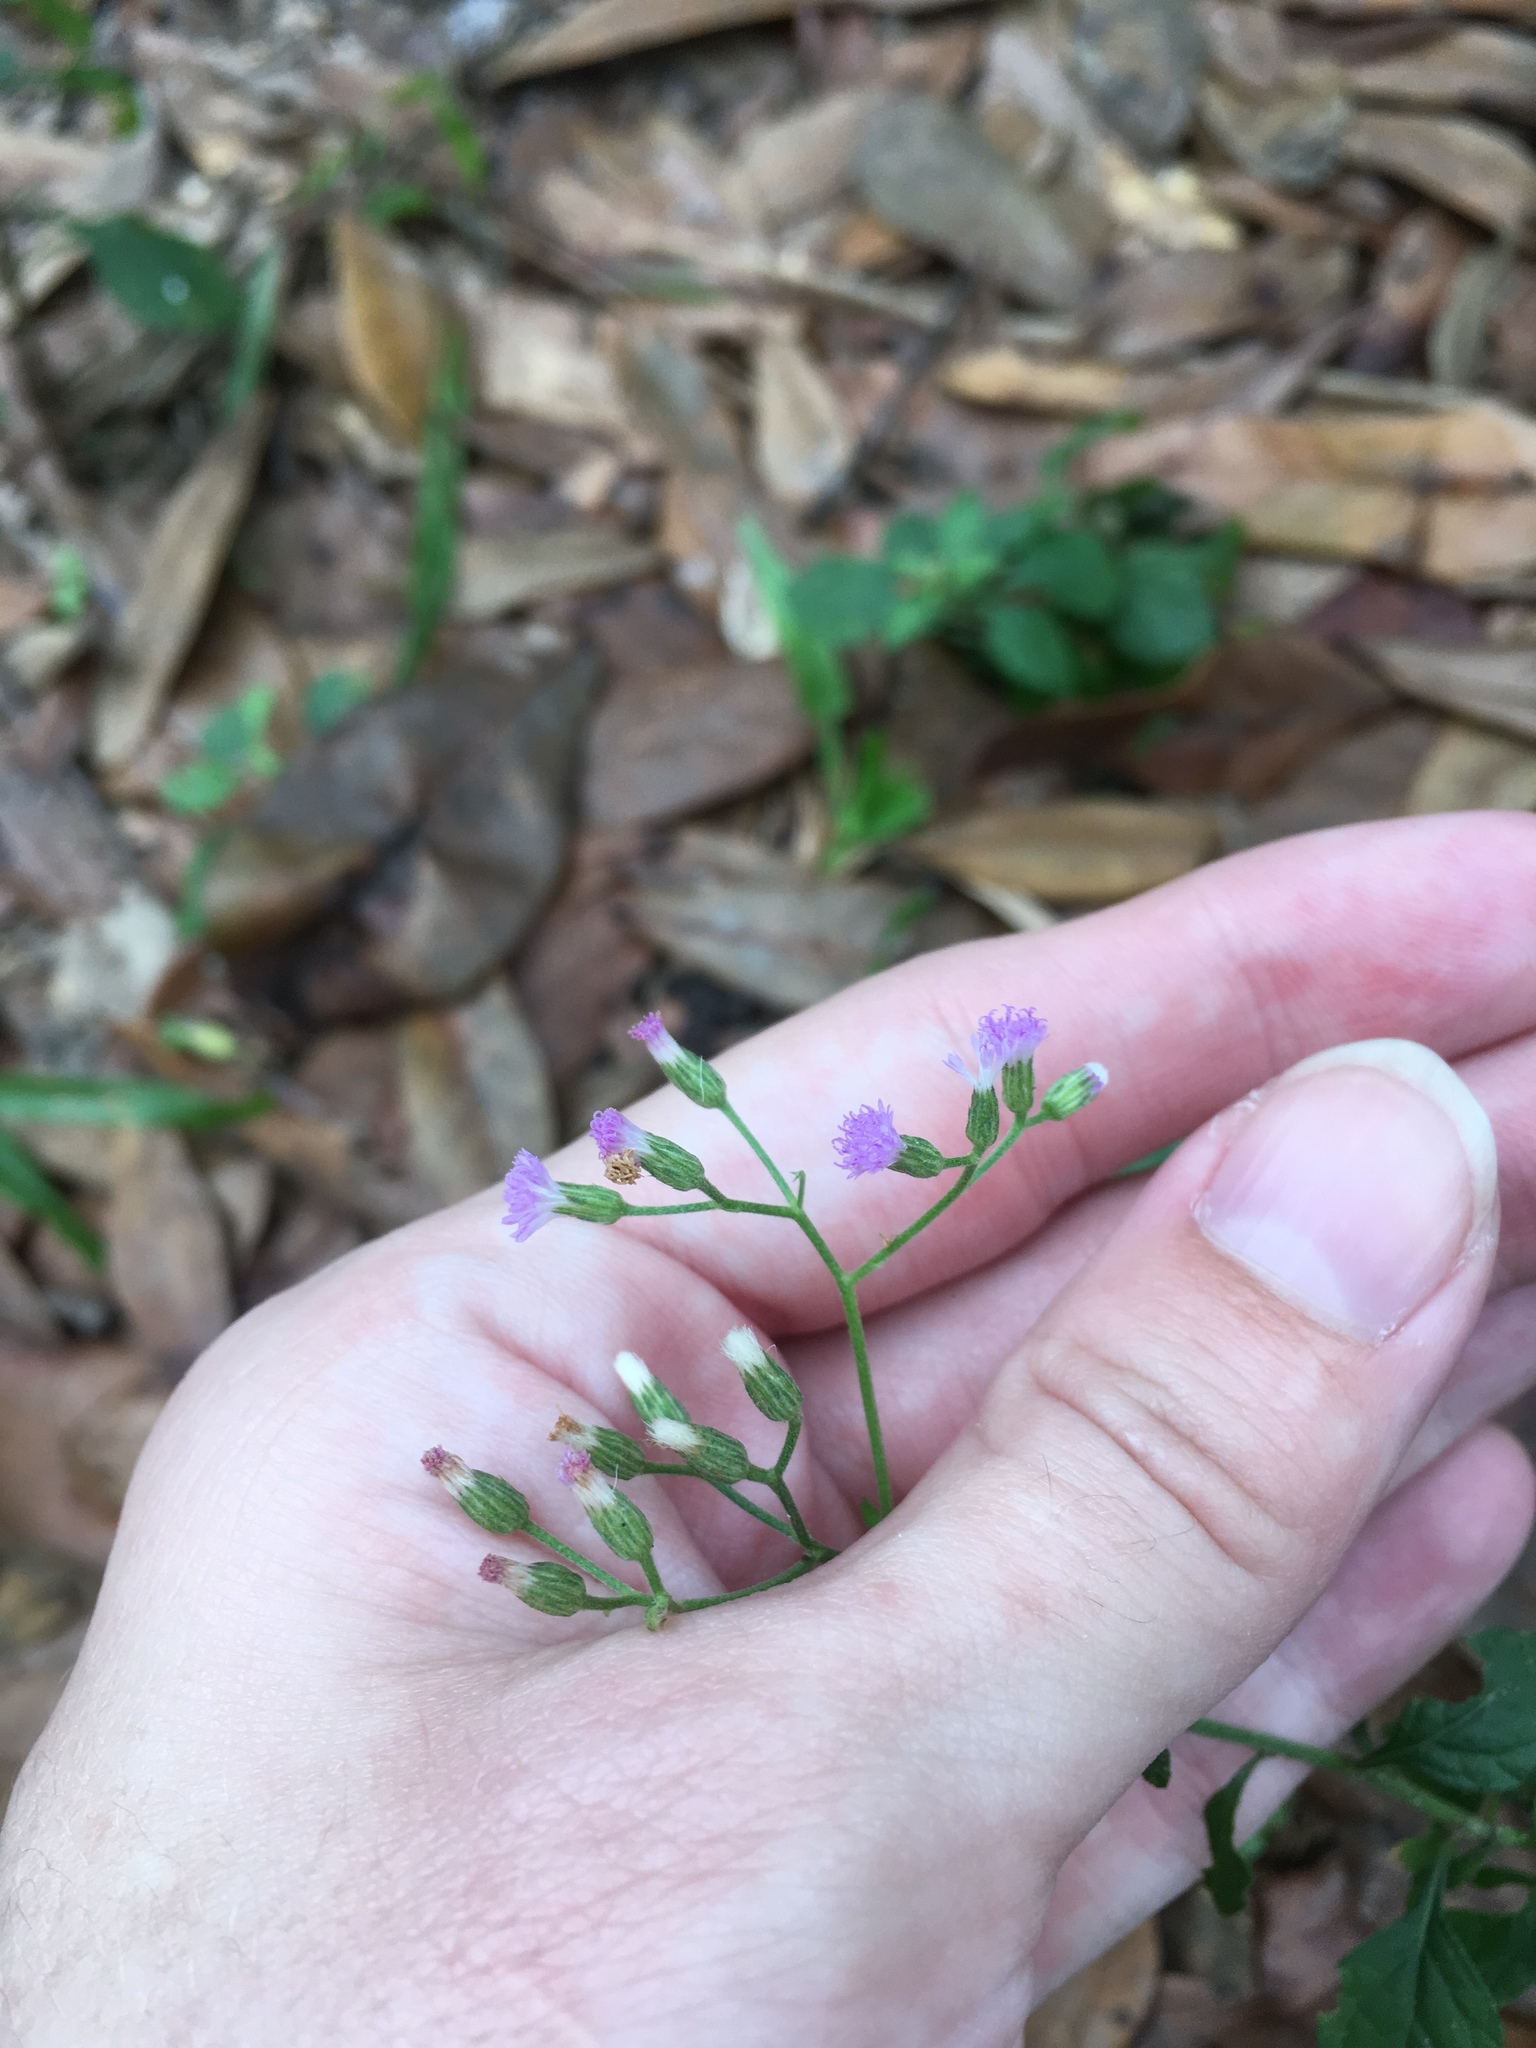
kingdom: Plantae
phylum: Tracheophyta
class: Magnoliopsida
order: Asterales
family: Asteraceae
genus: Cyanthillium
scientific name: Cyanthillium cinereum
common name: Little ironweed
